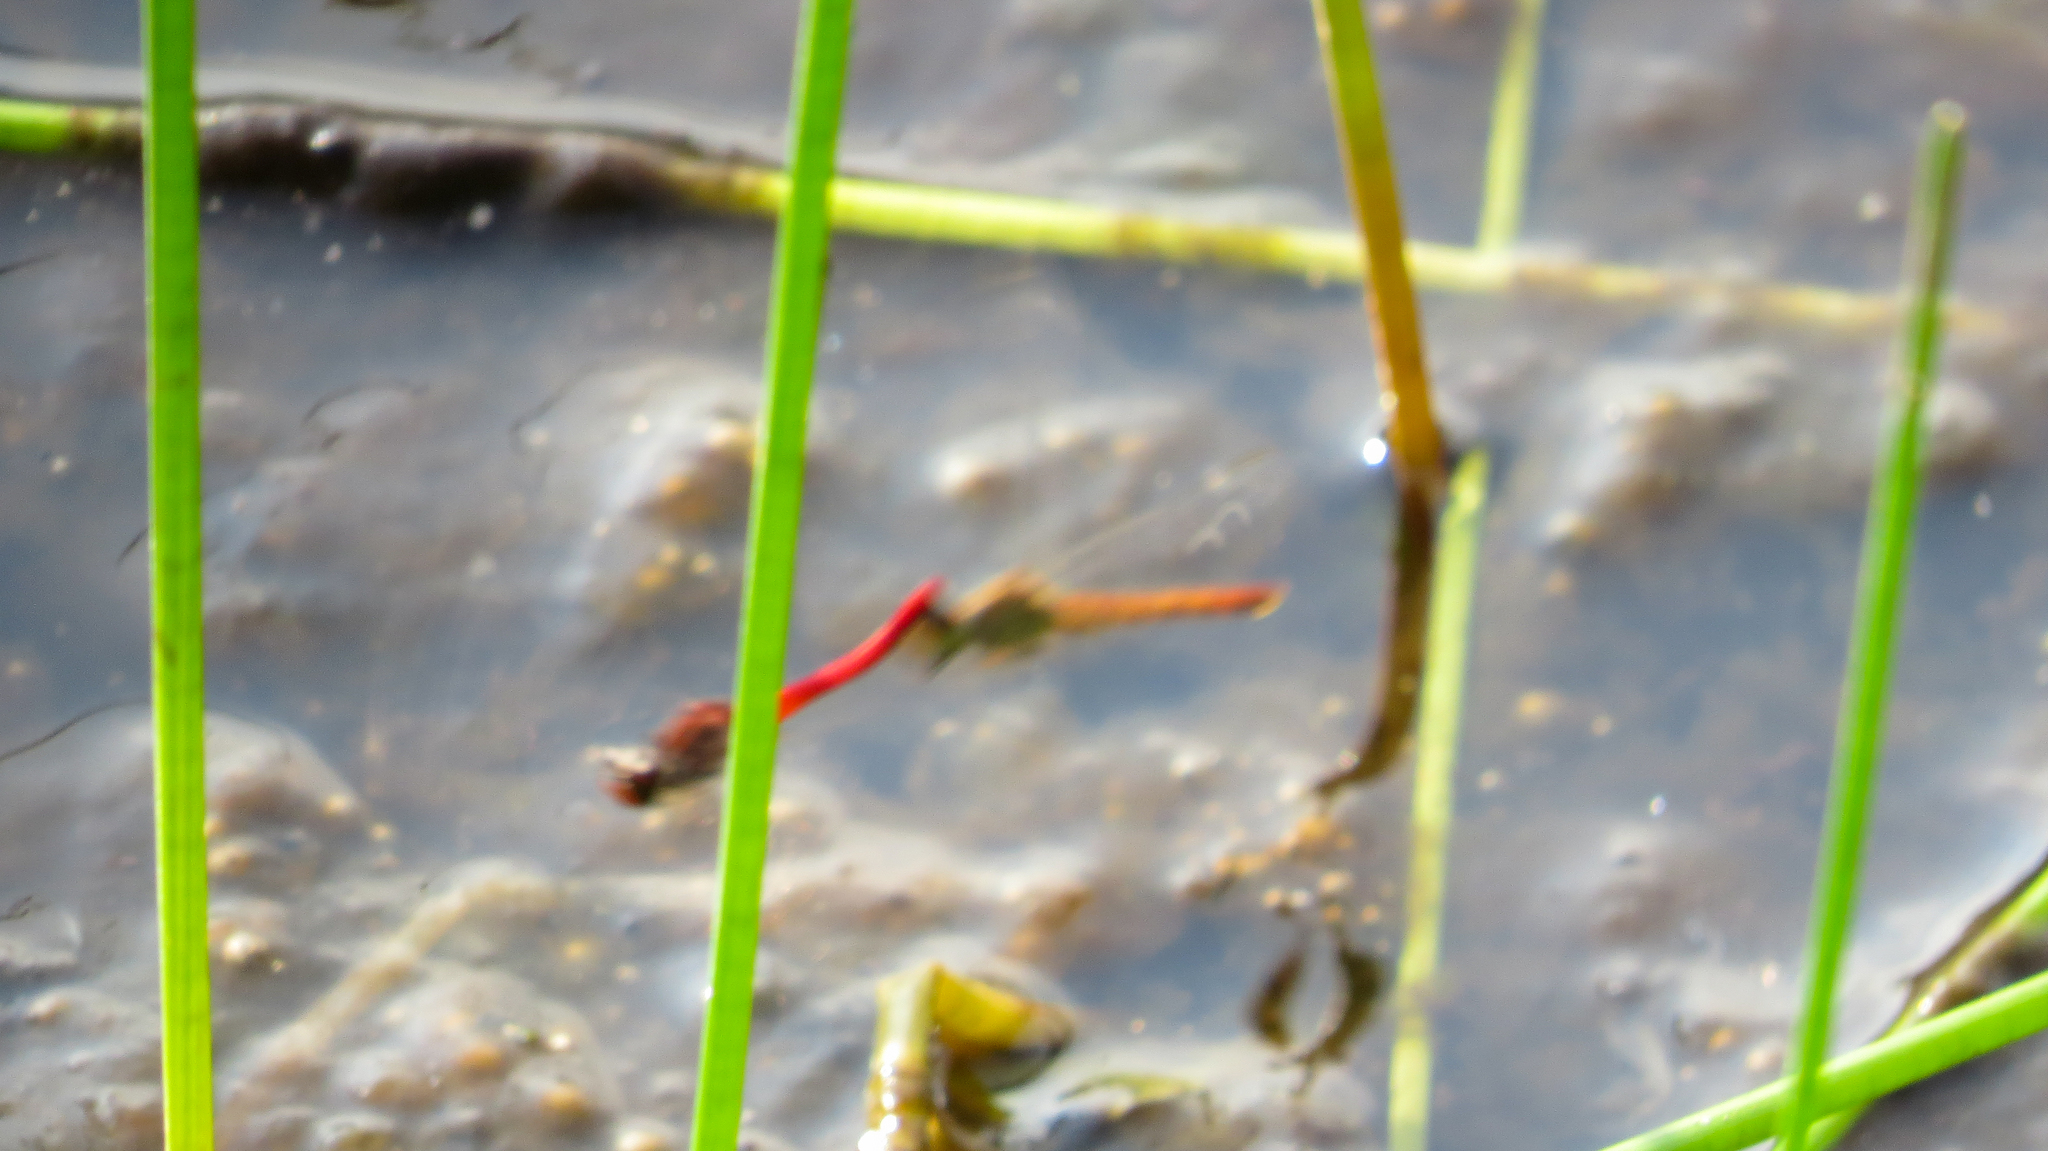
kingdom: Animalia
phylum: Arthropoda
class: Insecta
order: Odonata
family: Libellulidae
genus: Nannodiplax
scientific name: Nannodiplax rubra
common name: Pygmy percher
